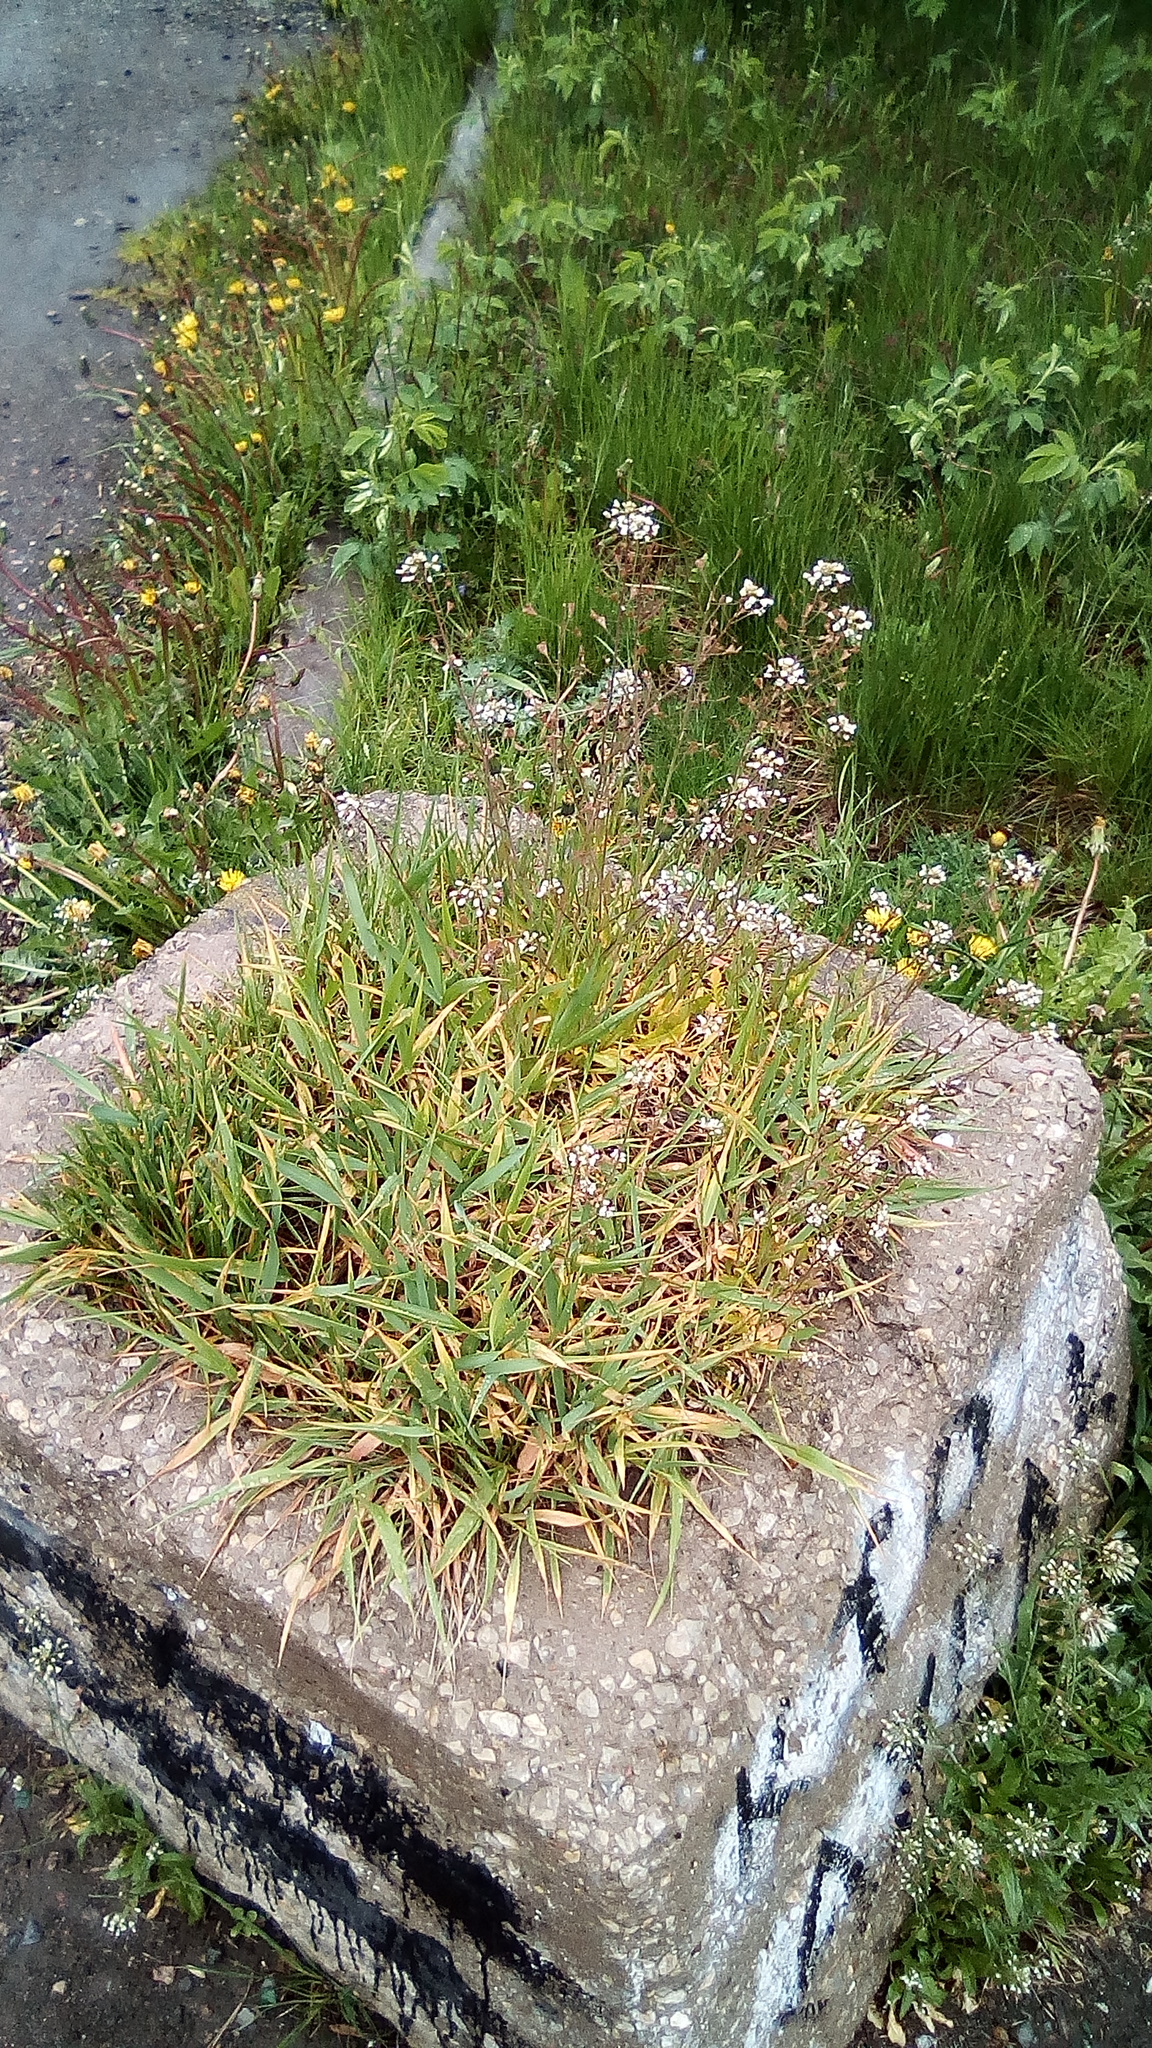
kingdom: Plantae
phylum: Tracheophyta
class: Magnoliopsida
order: Brassicales
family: Brassicaceae
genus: Capsella
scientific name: Capsella bursa-pastoris
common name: Shepherd's purse
